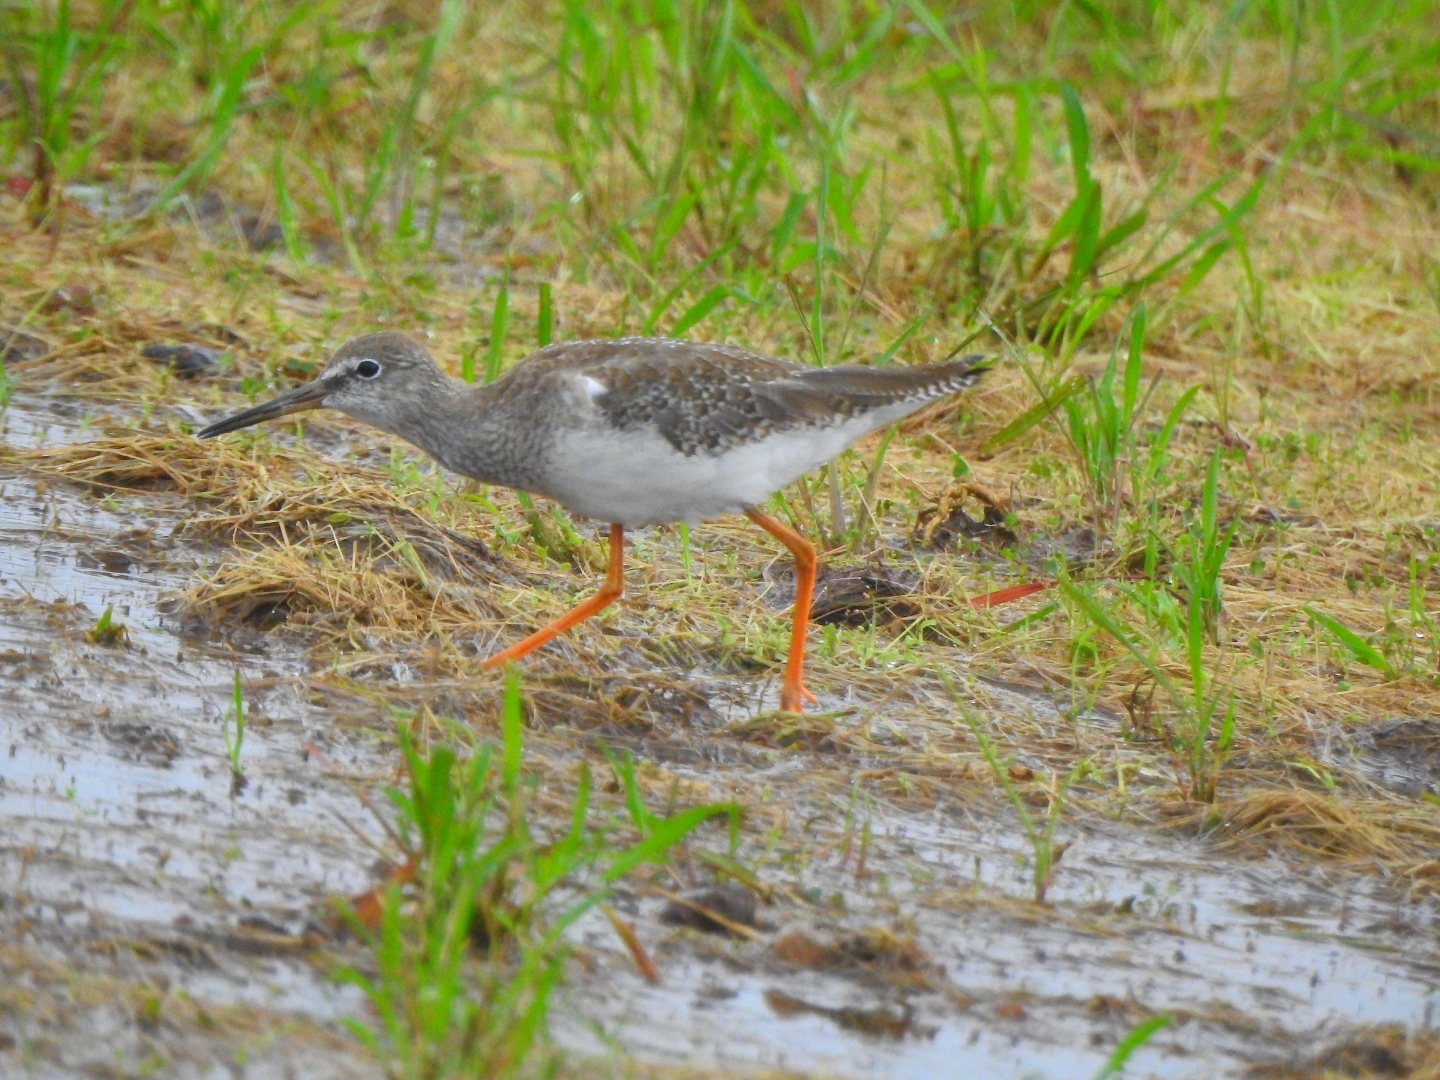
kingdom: Animalia
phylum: Chordata
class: Aves
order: Charadriiformes
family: Scolopacidae
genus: Tringa
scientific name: Tringa totanus
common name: Common redshank
